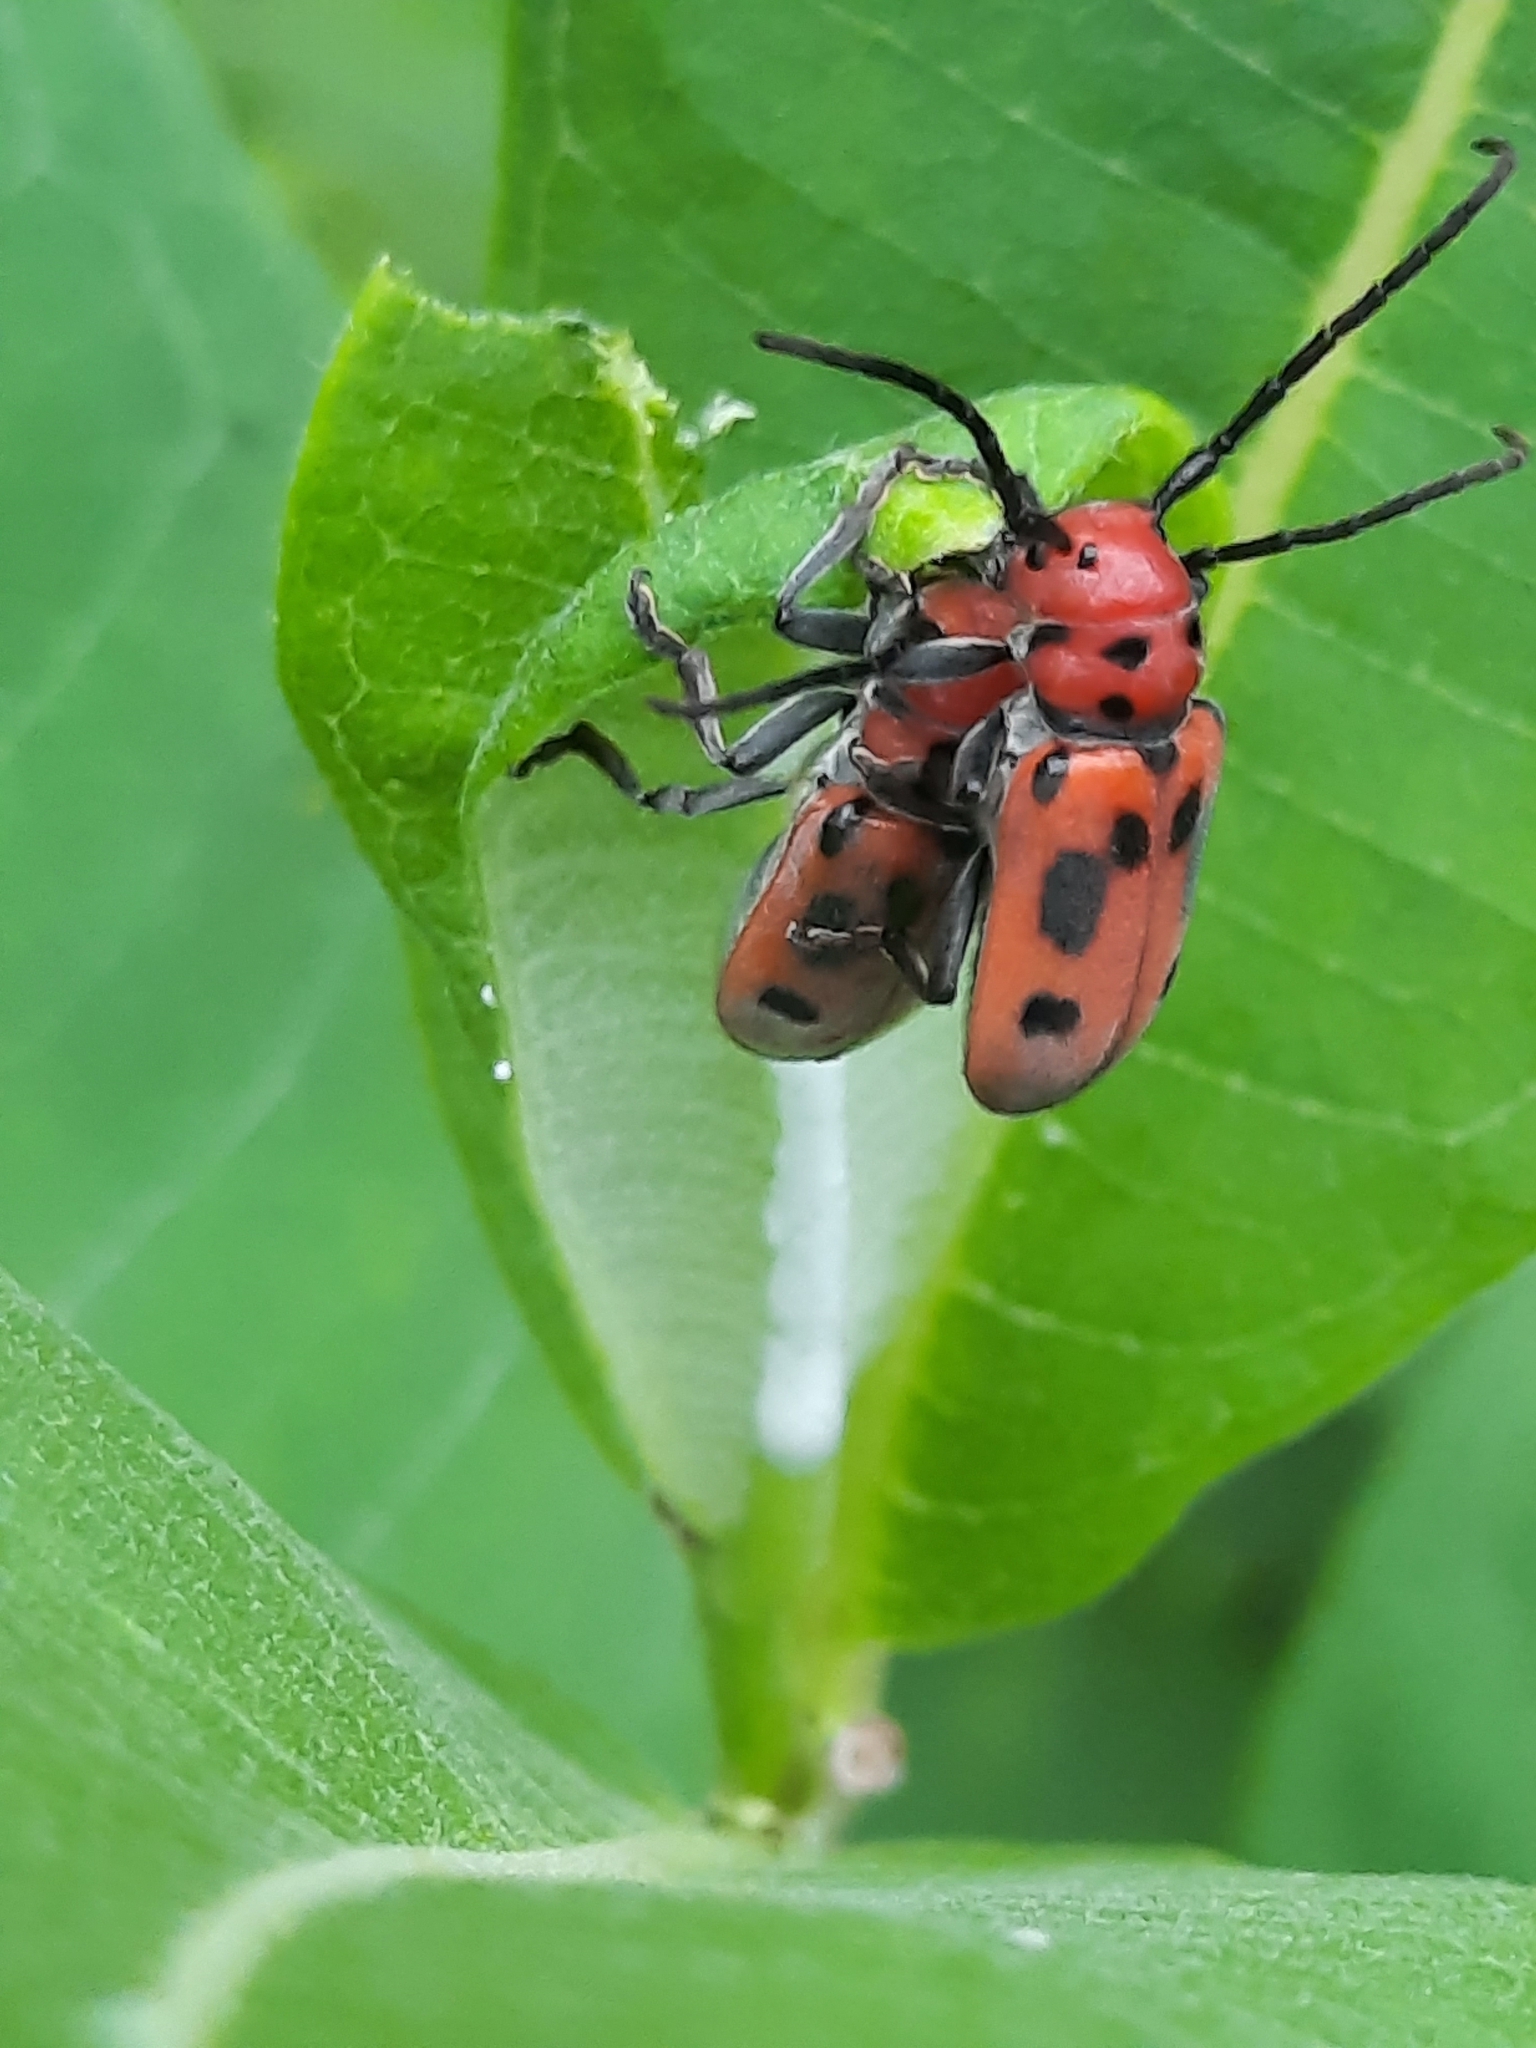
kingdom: Animalia
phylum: Arthropoda
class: Insecta
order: Coleoptera
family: Cerambycidae
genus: Tetraopes
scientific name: Tetraopes tetrophthalmus
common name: Red milkweed beetle
